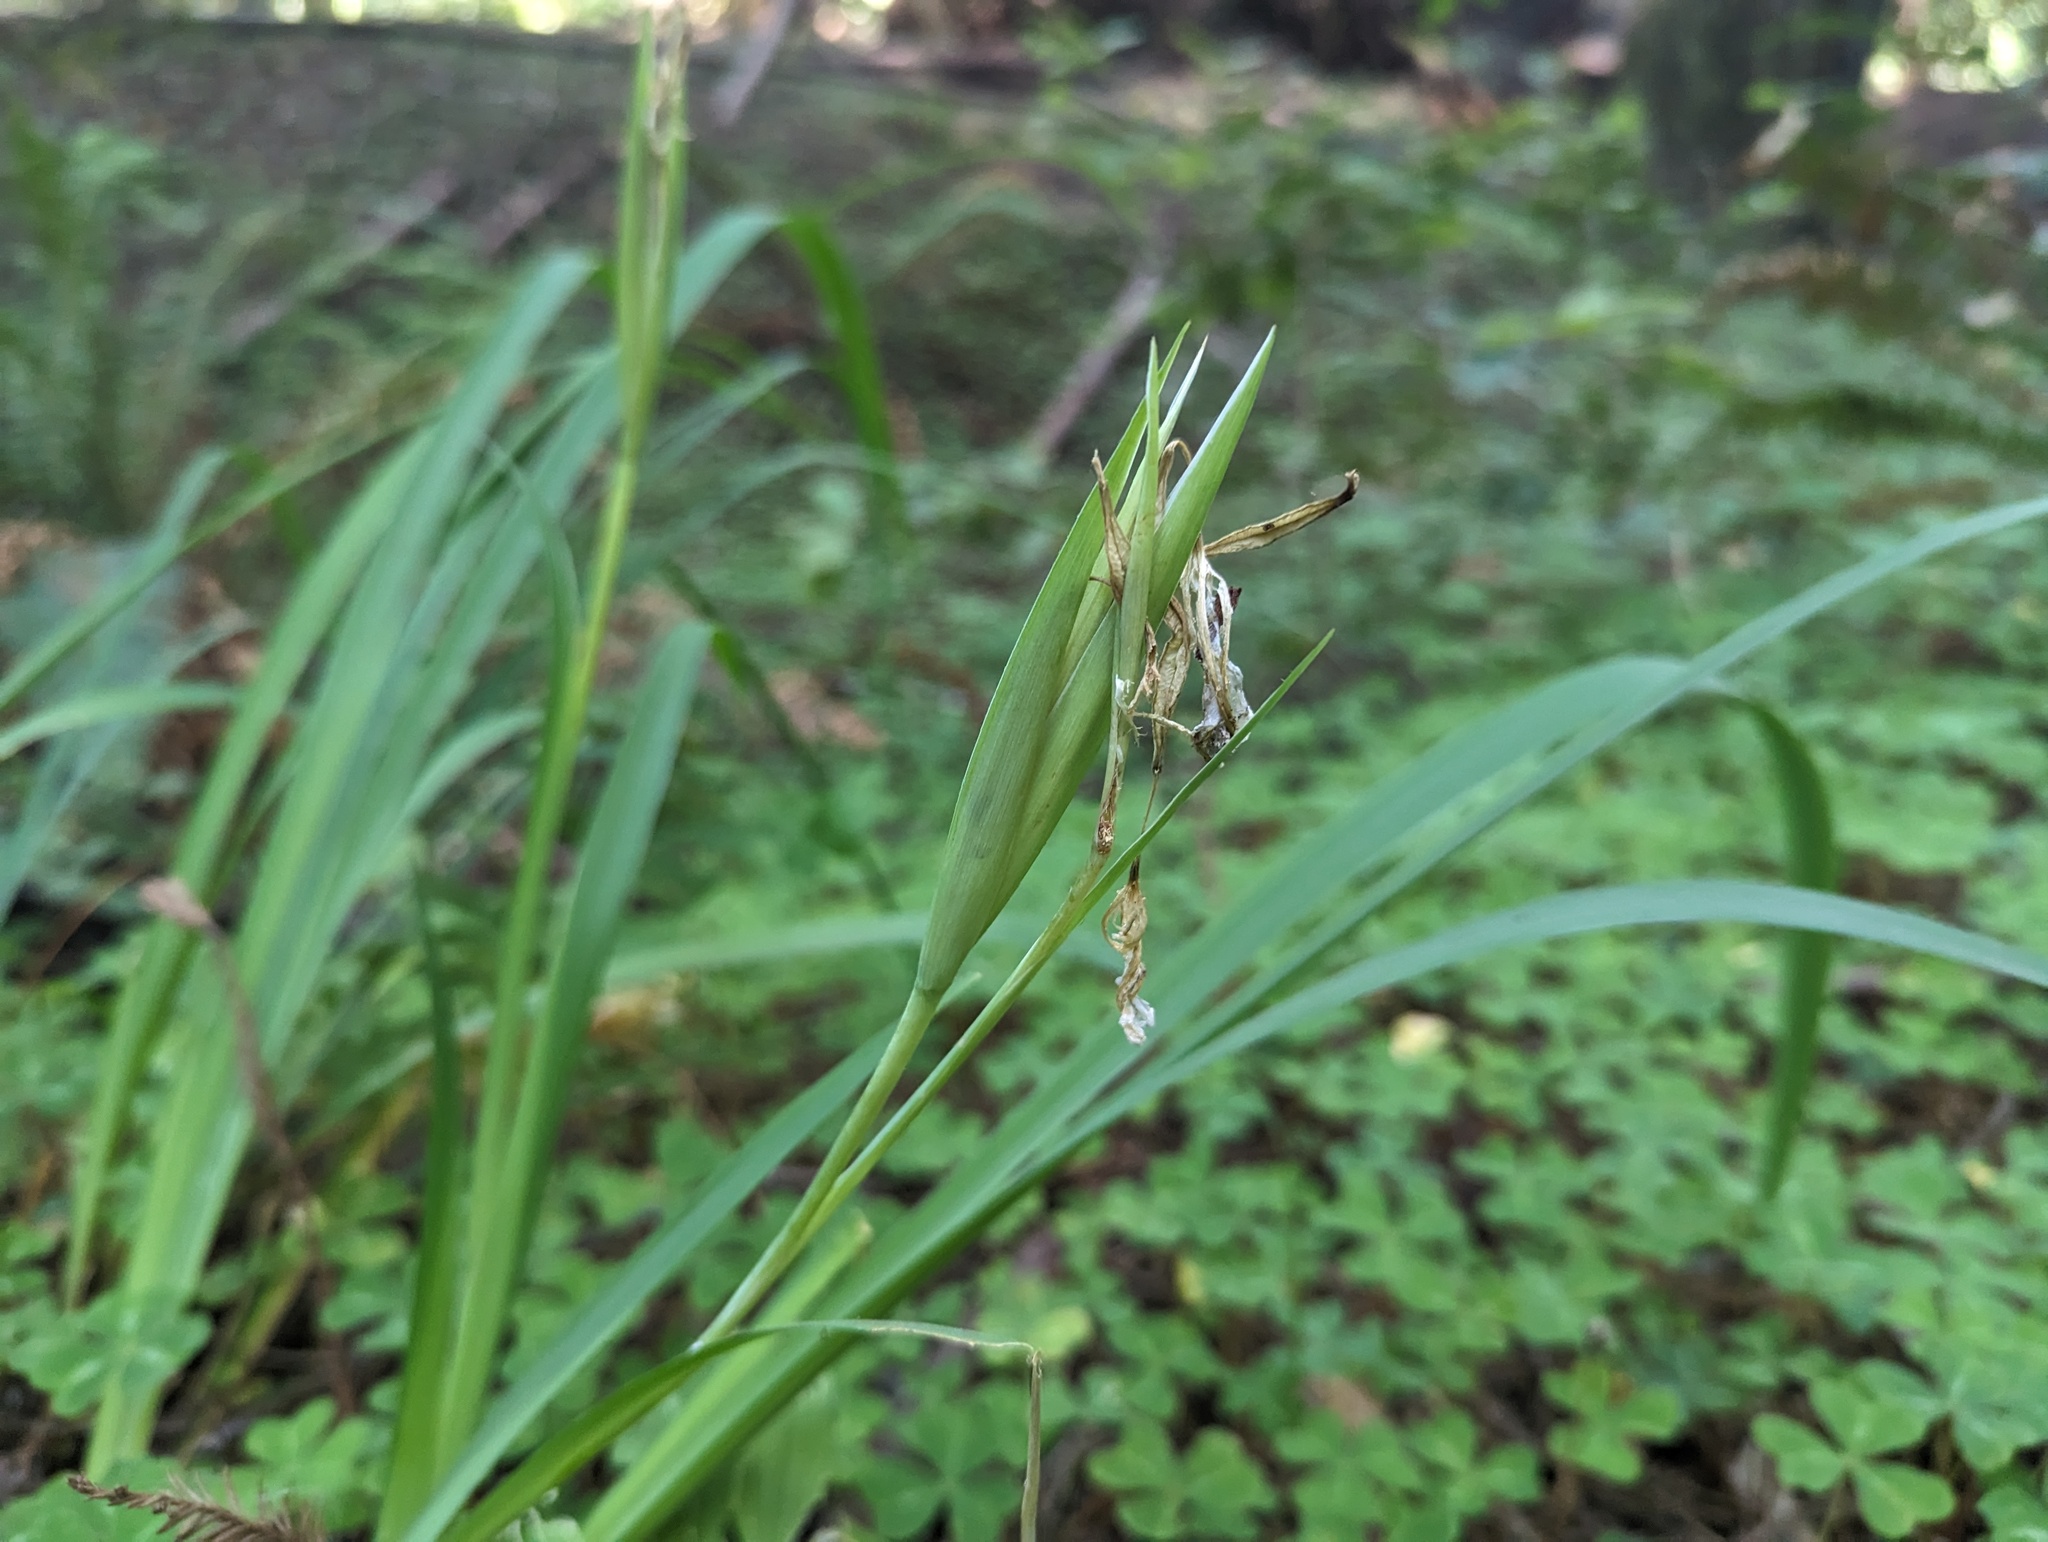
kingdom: Plantae
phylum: Tracheophyta
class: Liliopsida
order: Asparagales
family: Iridaceae
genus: Iris
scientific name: Iris douglasiana
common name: Marin iris
